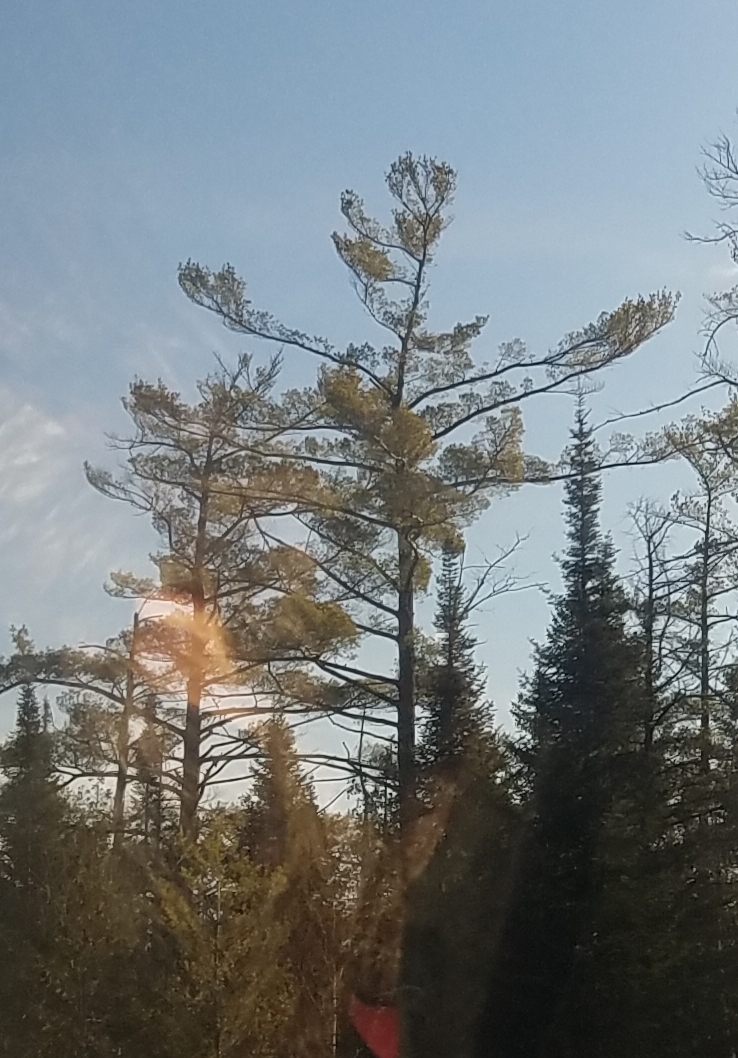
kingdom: Plantae
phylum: Tracheophyta
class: Pinopsida
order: Pinales
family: Pinaceae
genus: Pinus
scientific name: Pinus strobus
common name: Weymouth pine
